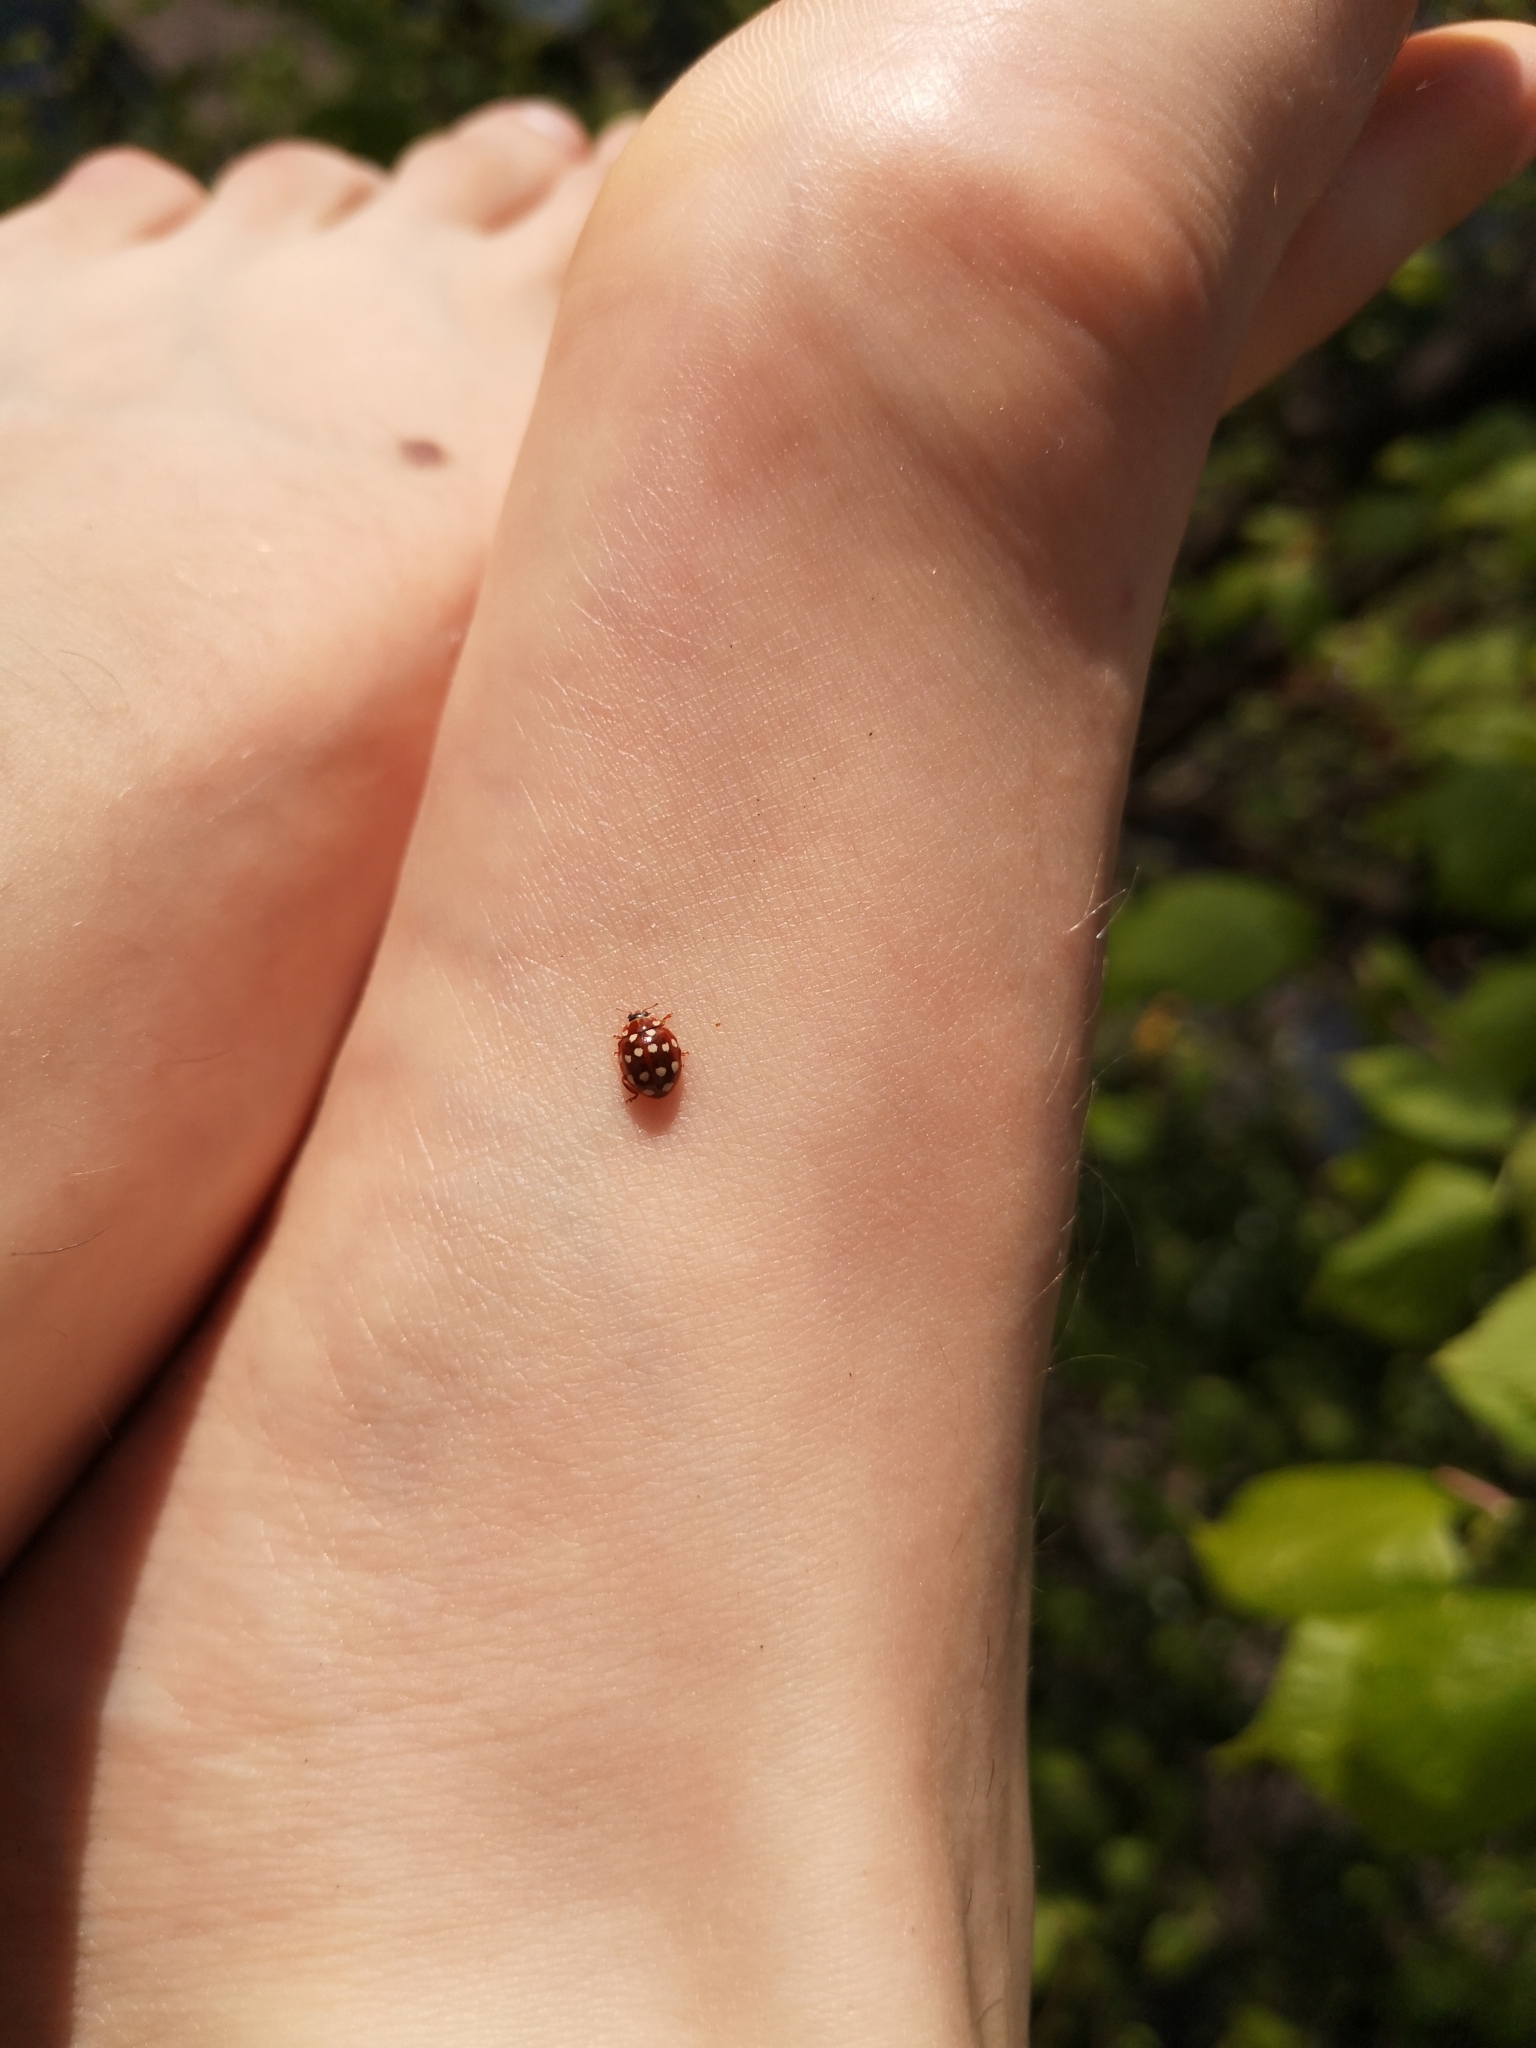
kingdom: Animalia
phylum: Arthropoda
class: Insecta
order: Coleoptera
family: Coccinellidae
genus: Calvia
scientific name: Calvia quatuordecimguttata
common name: Cream-spot ladybird
